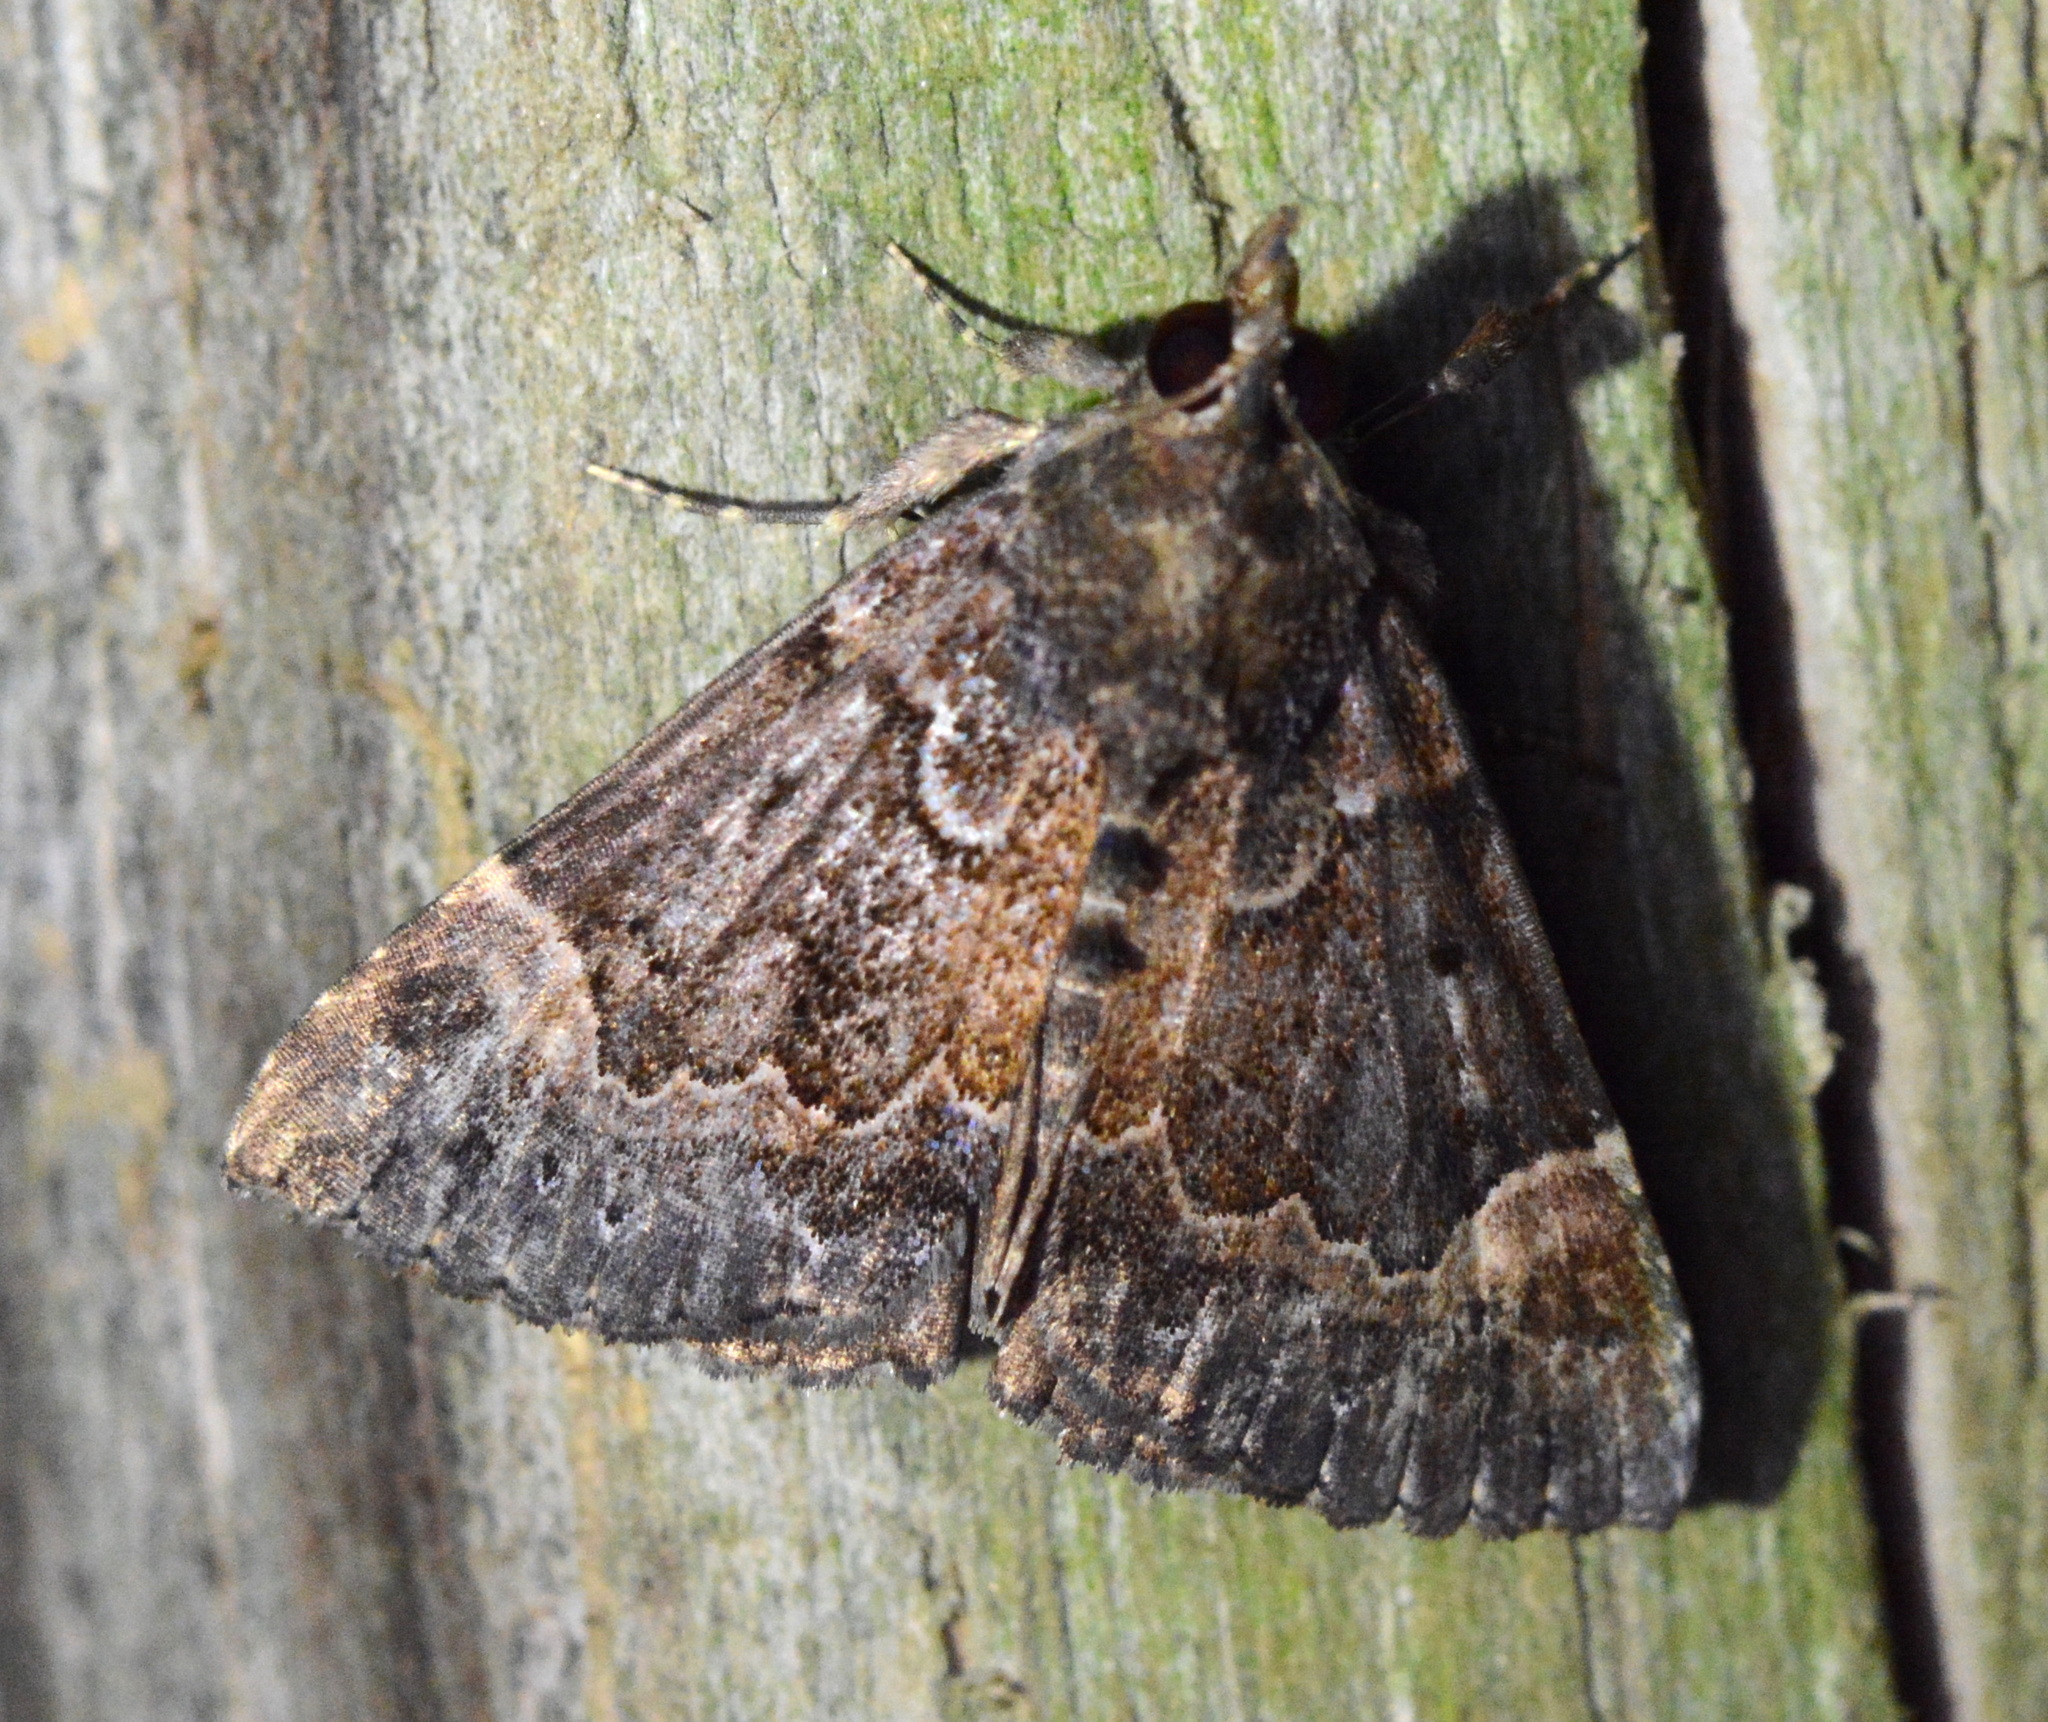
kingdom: Animalia
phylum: Arthropoda
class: Insecta
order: Lepidoptera
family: Erebidae
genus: Hypena
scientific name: Hypena palparia
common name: Mottled bomolocha moth
